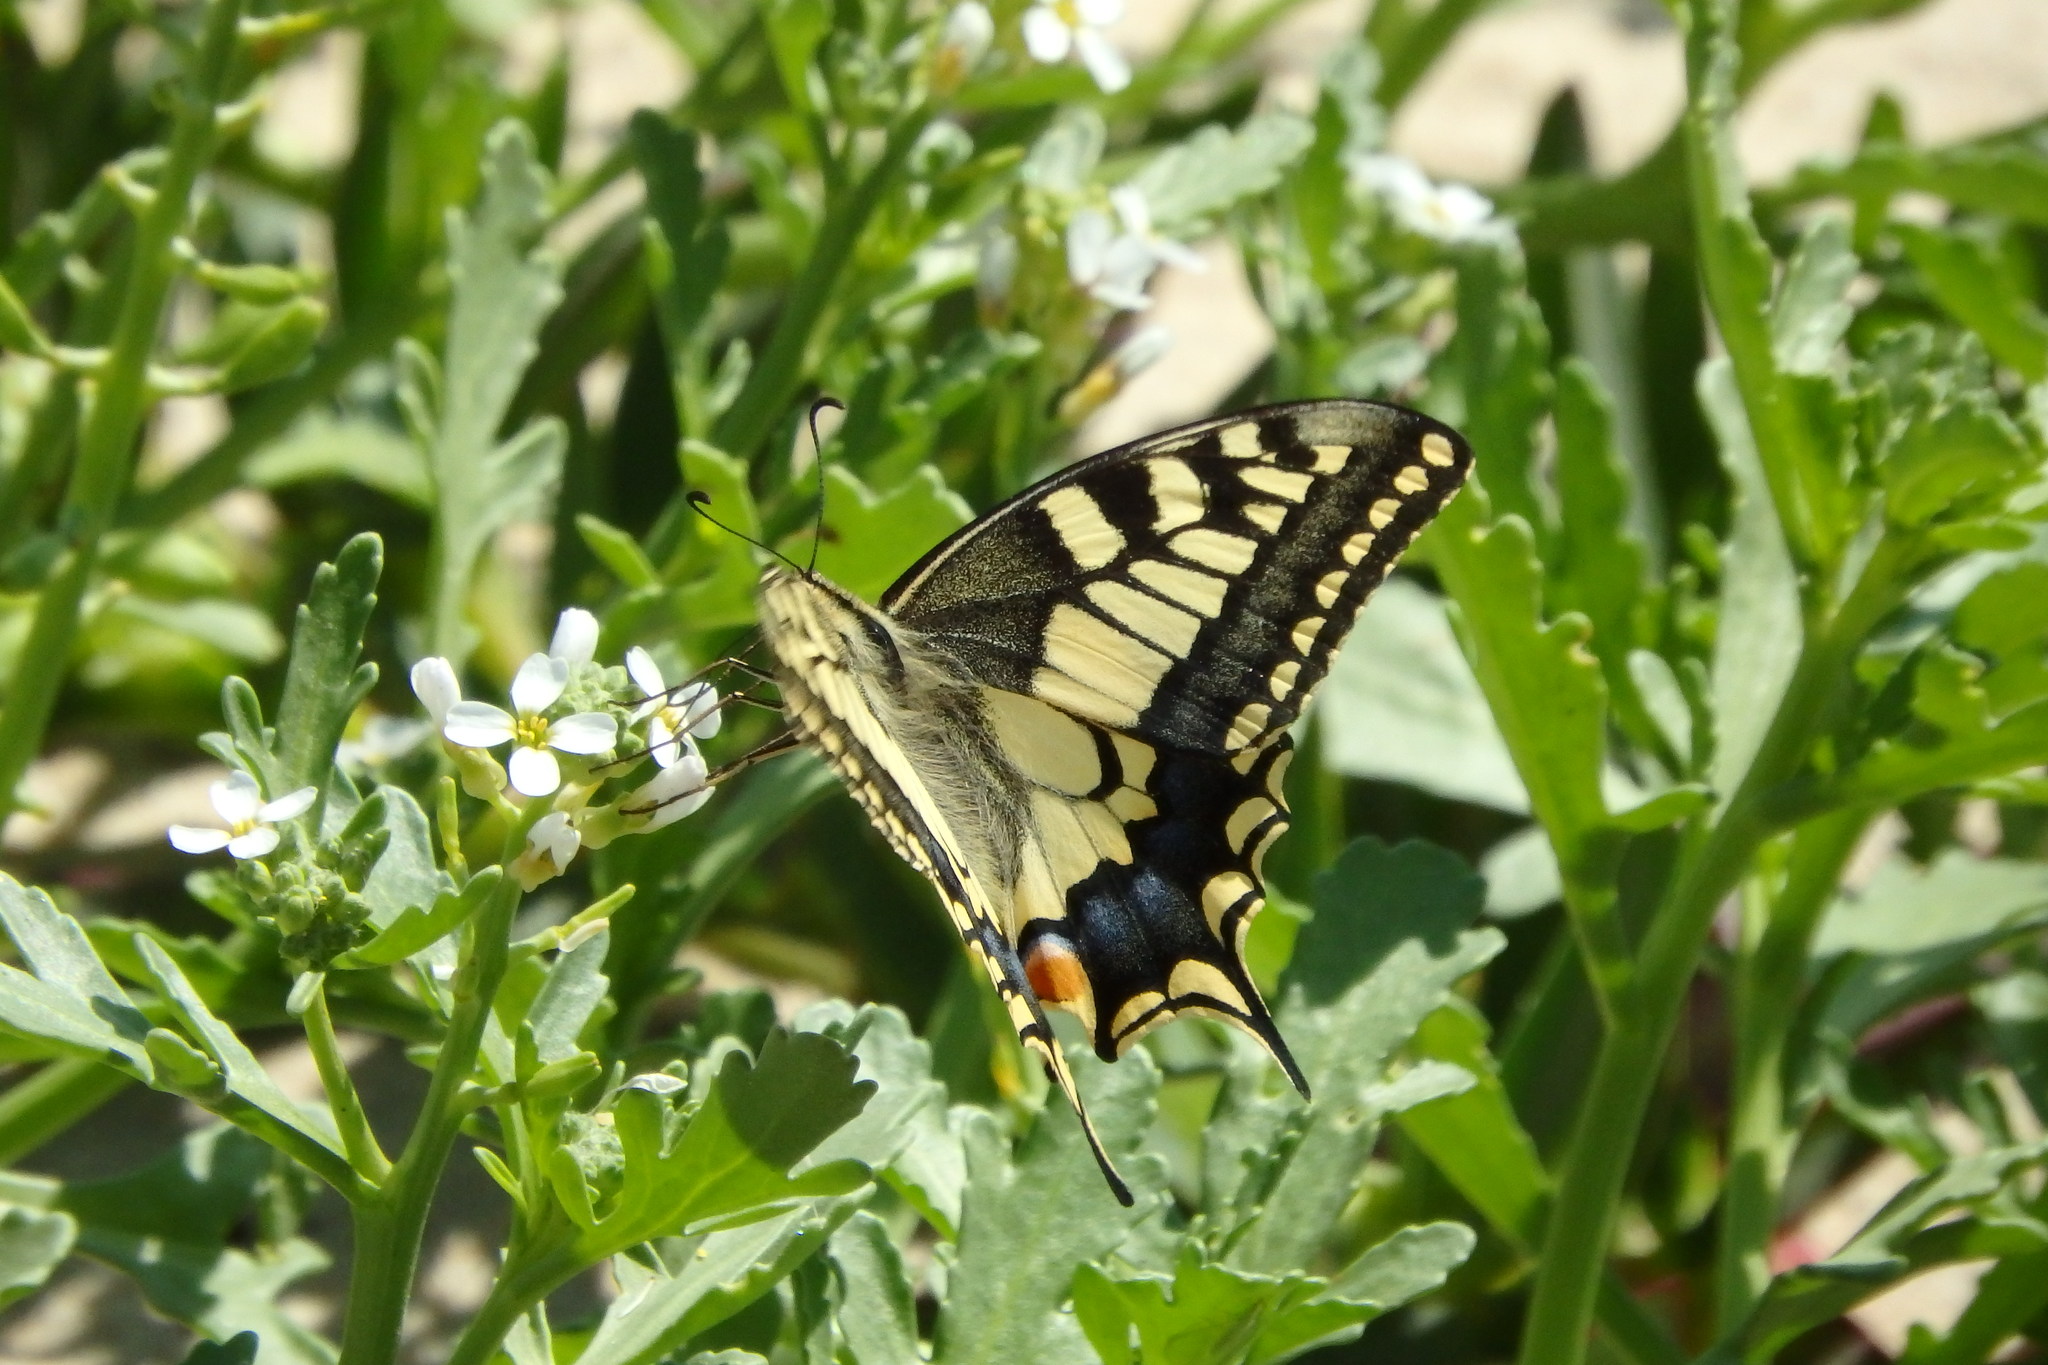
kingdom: Animalia
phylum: Arthropoda
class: Insecta
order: Lepidoptera
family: Papilionidae
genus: Papilio
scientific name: Papilio machaon
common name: Swallowtail
